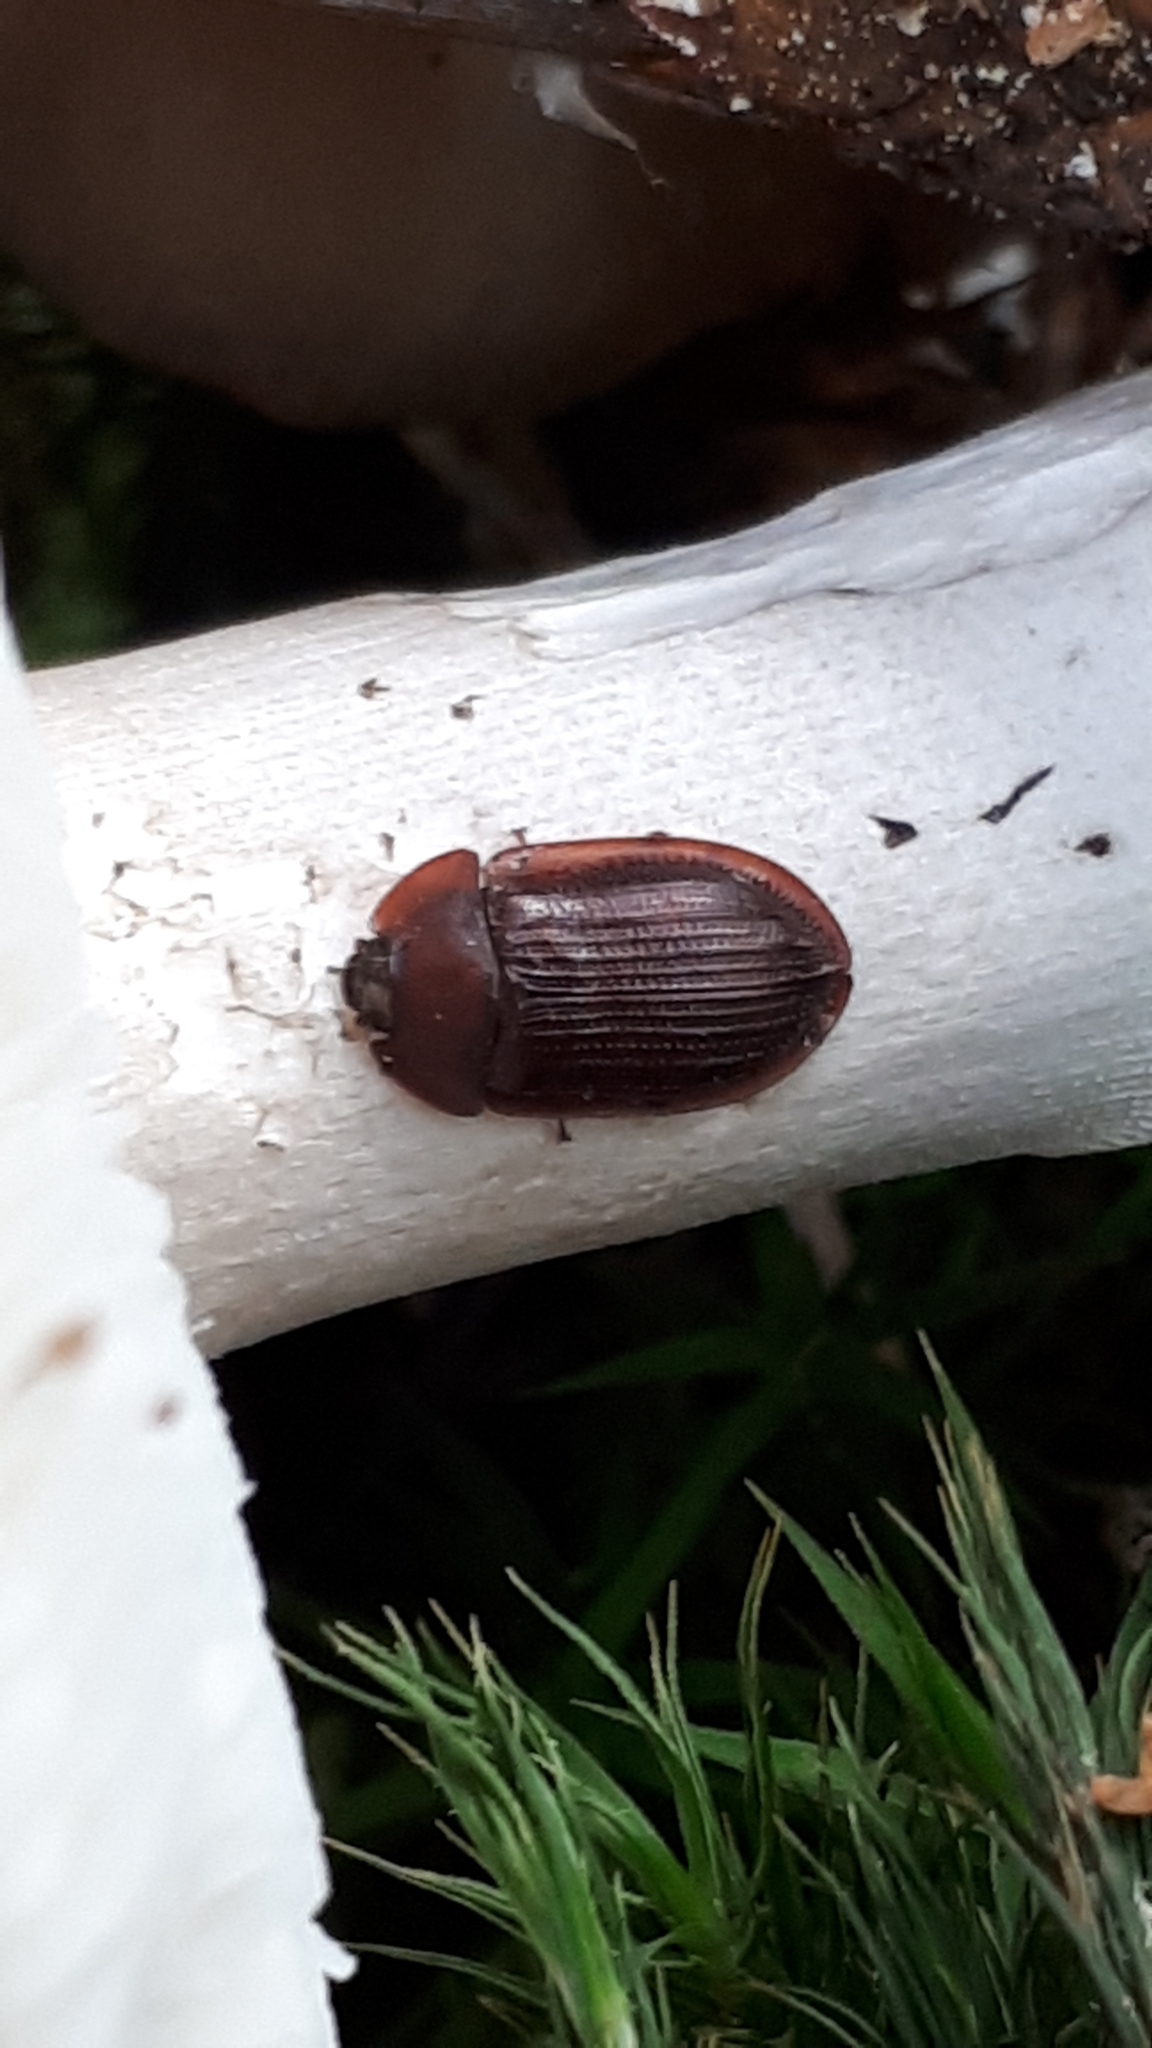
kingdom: Animalia
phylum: Arthropoda
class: Insecta
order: Coleoptera
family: Trogossitidae
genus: Peltis
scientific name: Peltis ferruginea
